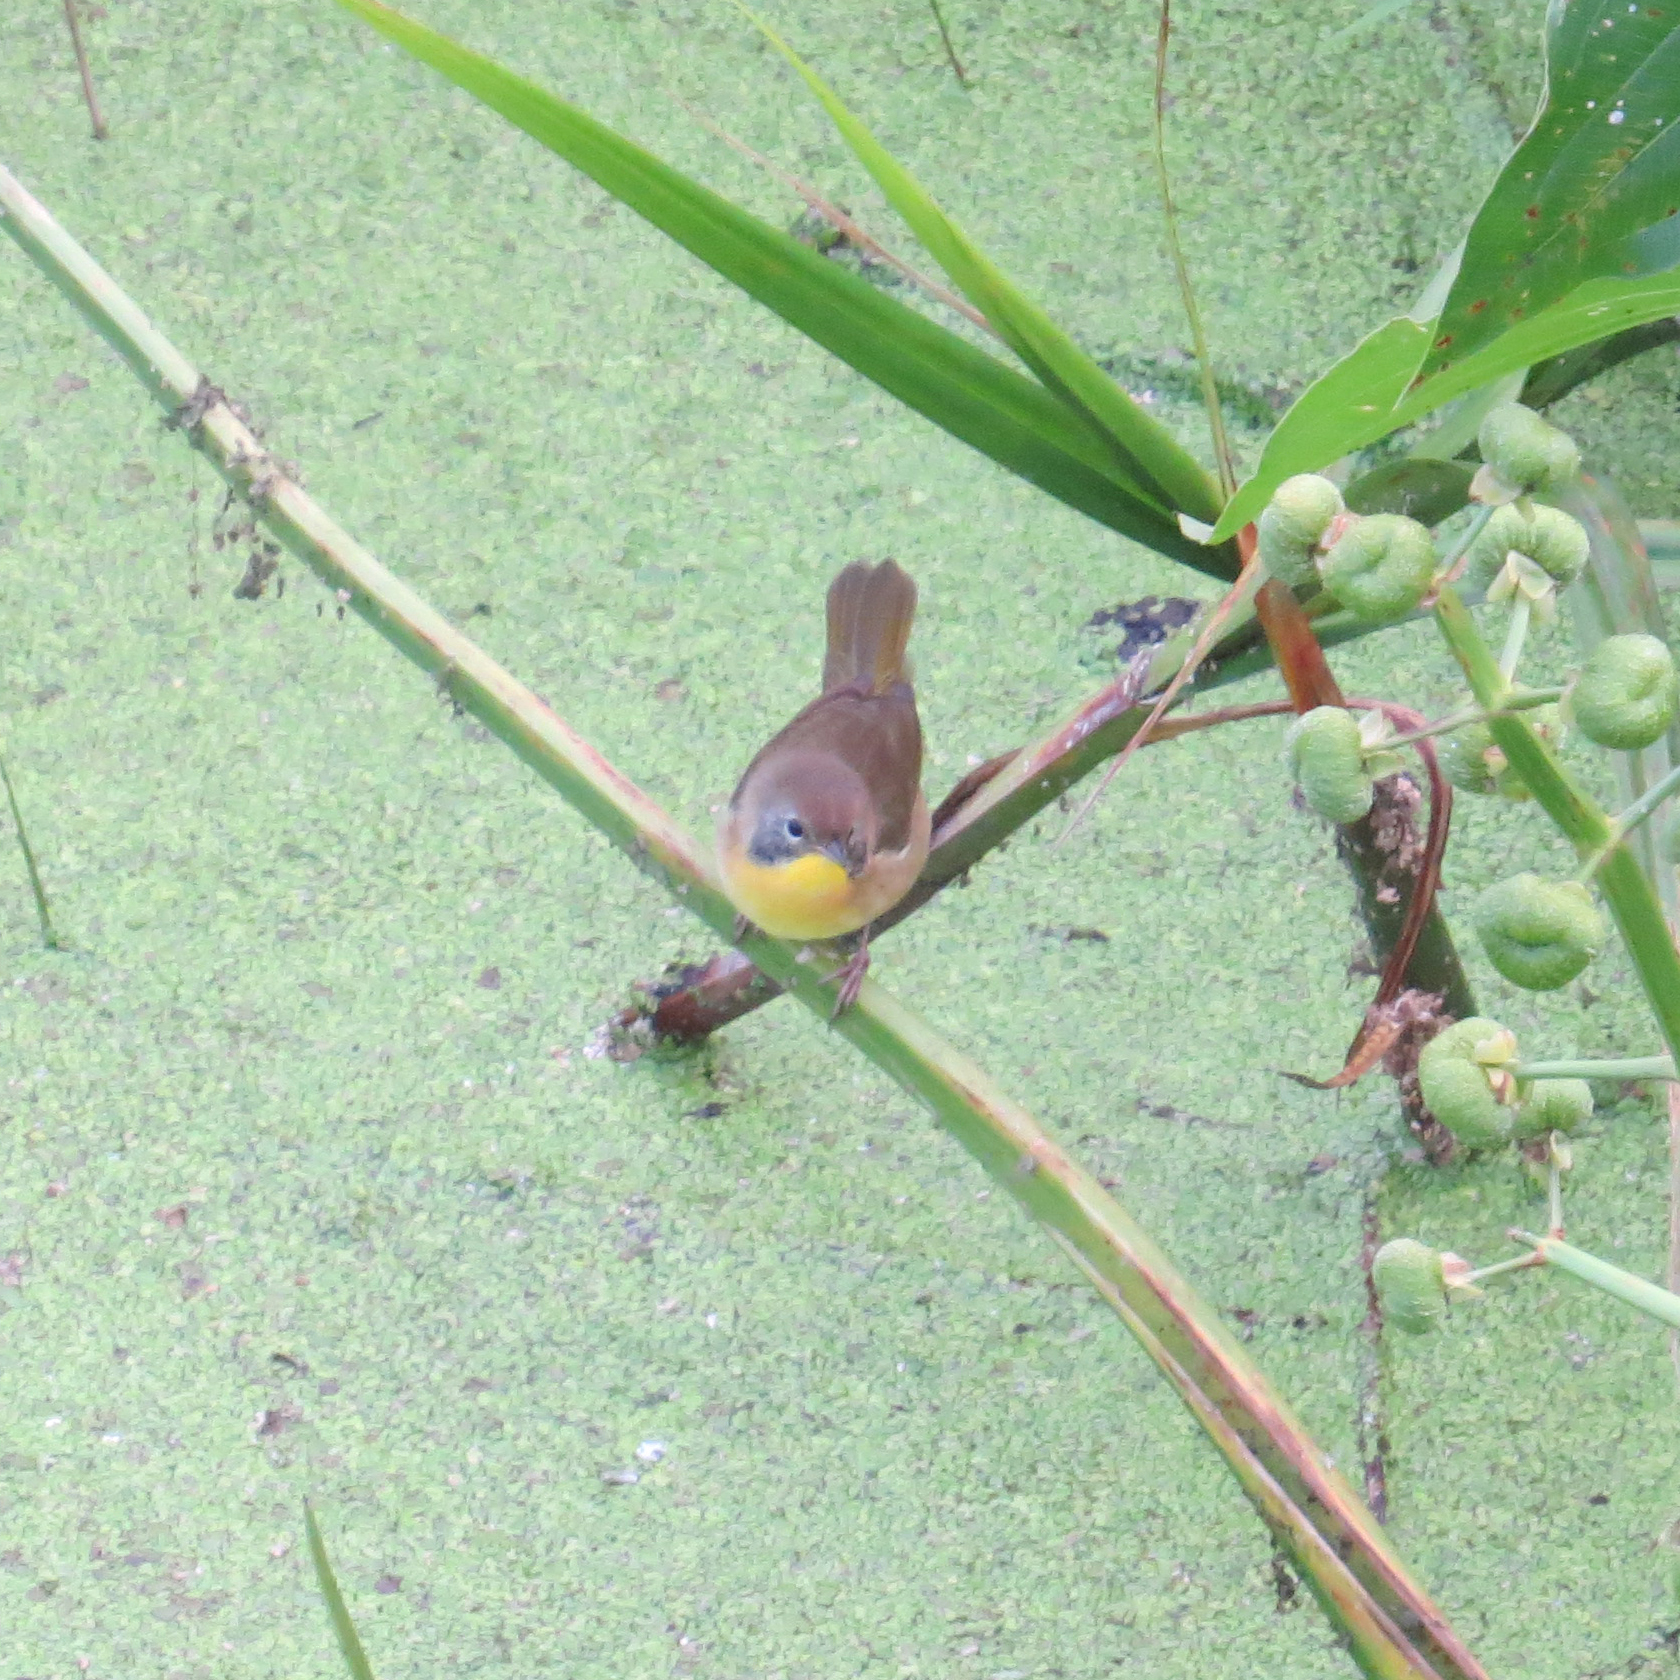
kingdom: Animalia
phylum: Chordata
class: Aves
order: Passeriformes
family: Parulidae
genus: Geothlypis
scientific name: Geothlypis trichas
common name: Common yellowthroat
